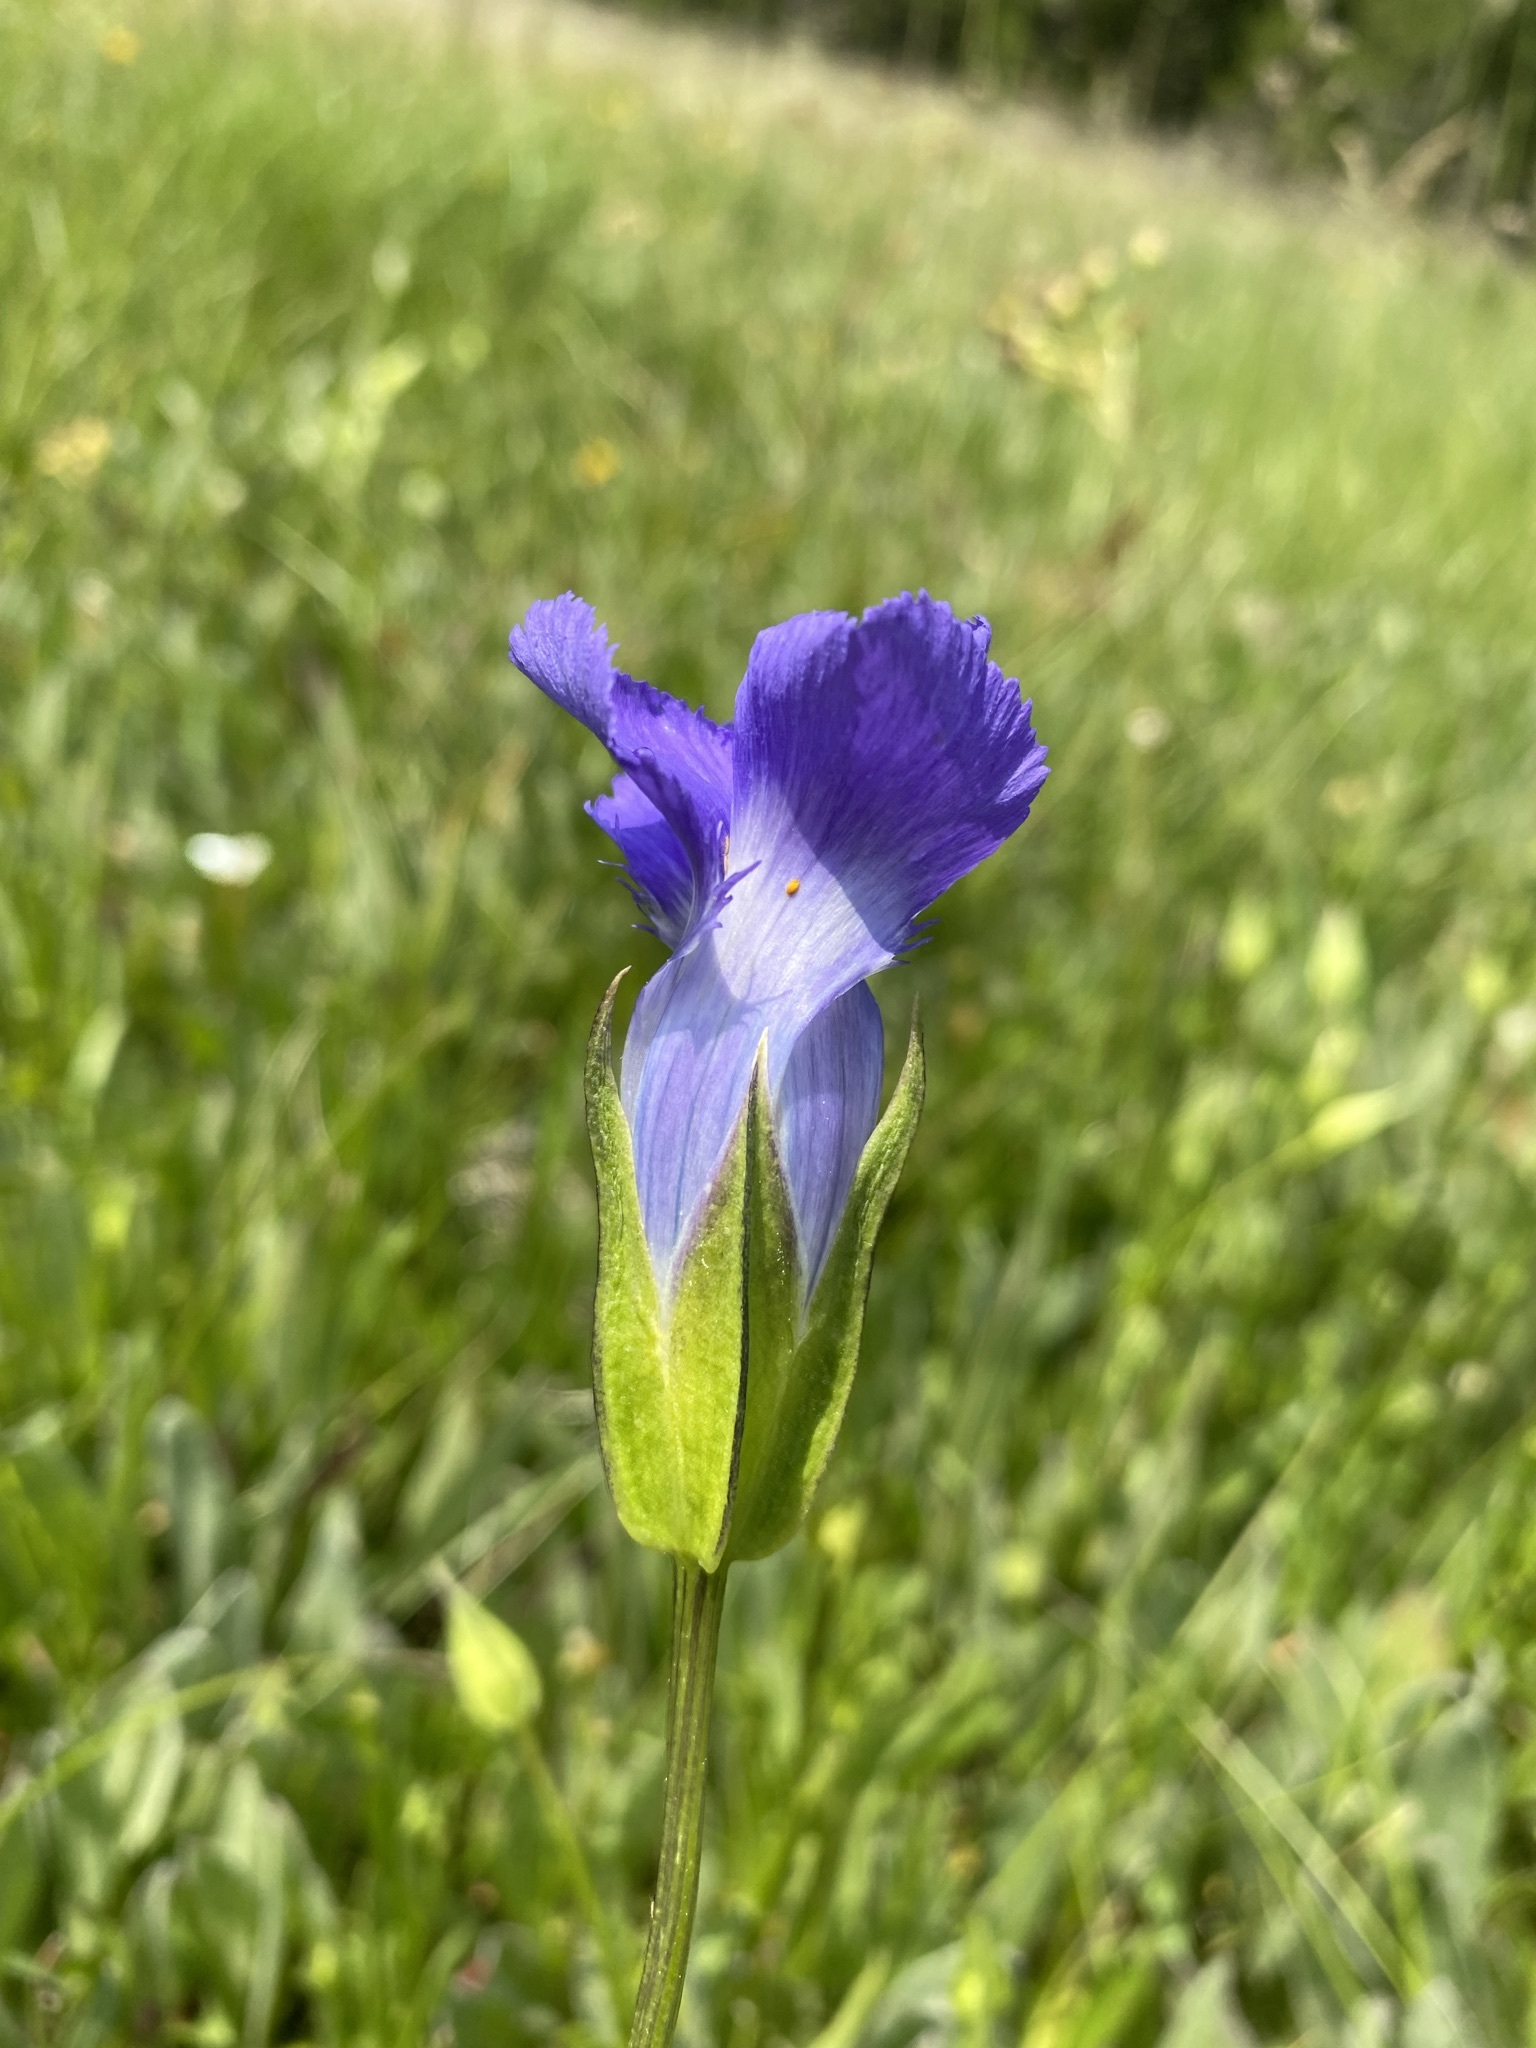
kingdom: Plantae
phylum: Tracheophyta
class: Magnoliopsida
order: Gentianales
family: Gentianaceae
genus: Gentianopsis
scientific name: Gentianopsis thermalis
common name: Rocky mountain fringed-gentian
